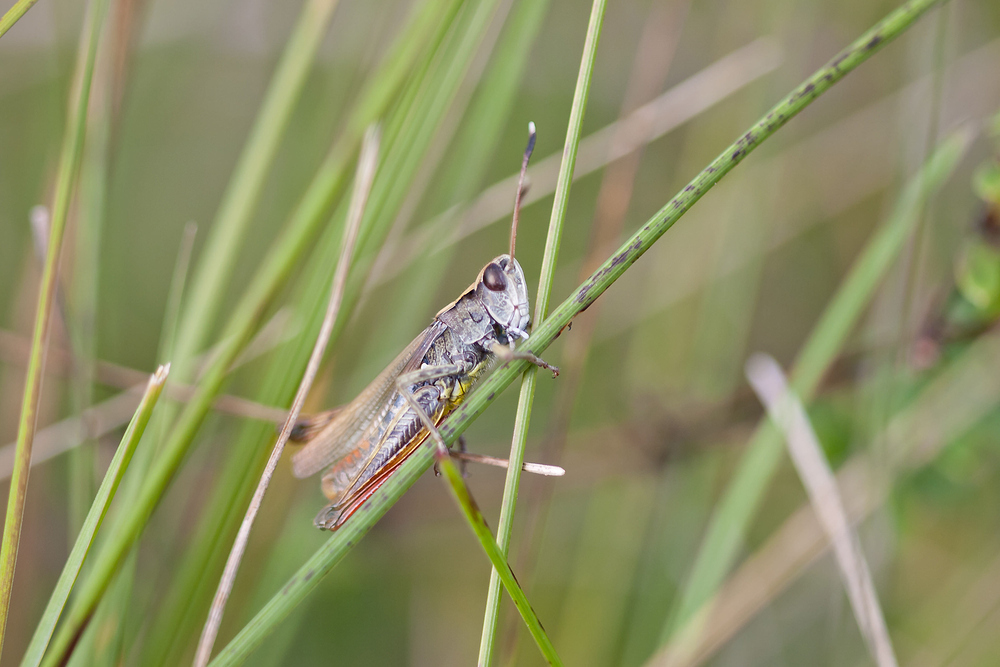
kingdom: Animalia
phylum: Arthropoda
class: Insecta
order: Orthoptera
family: Acrididae
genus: Gomphocerippus
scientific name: Gomphocerippus rufus
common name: Rufous grasshopper
